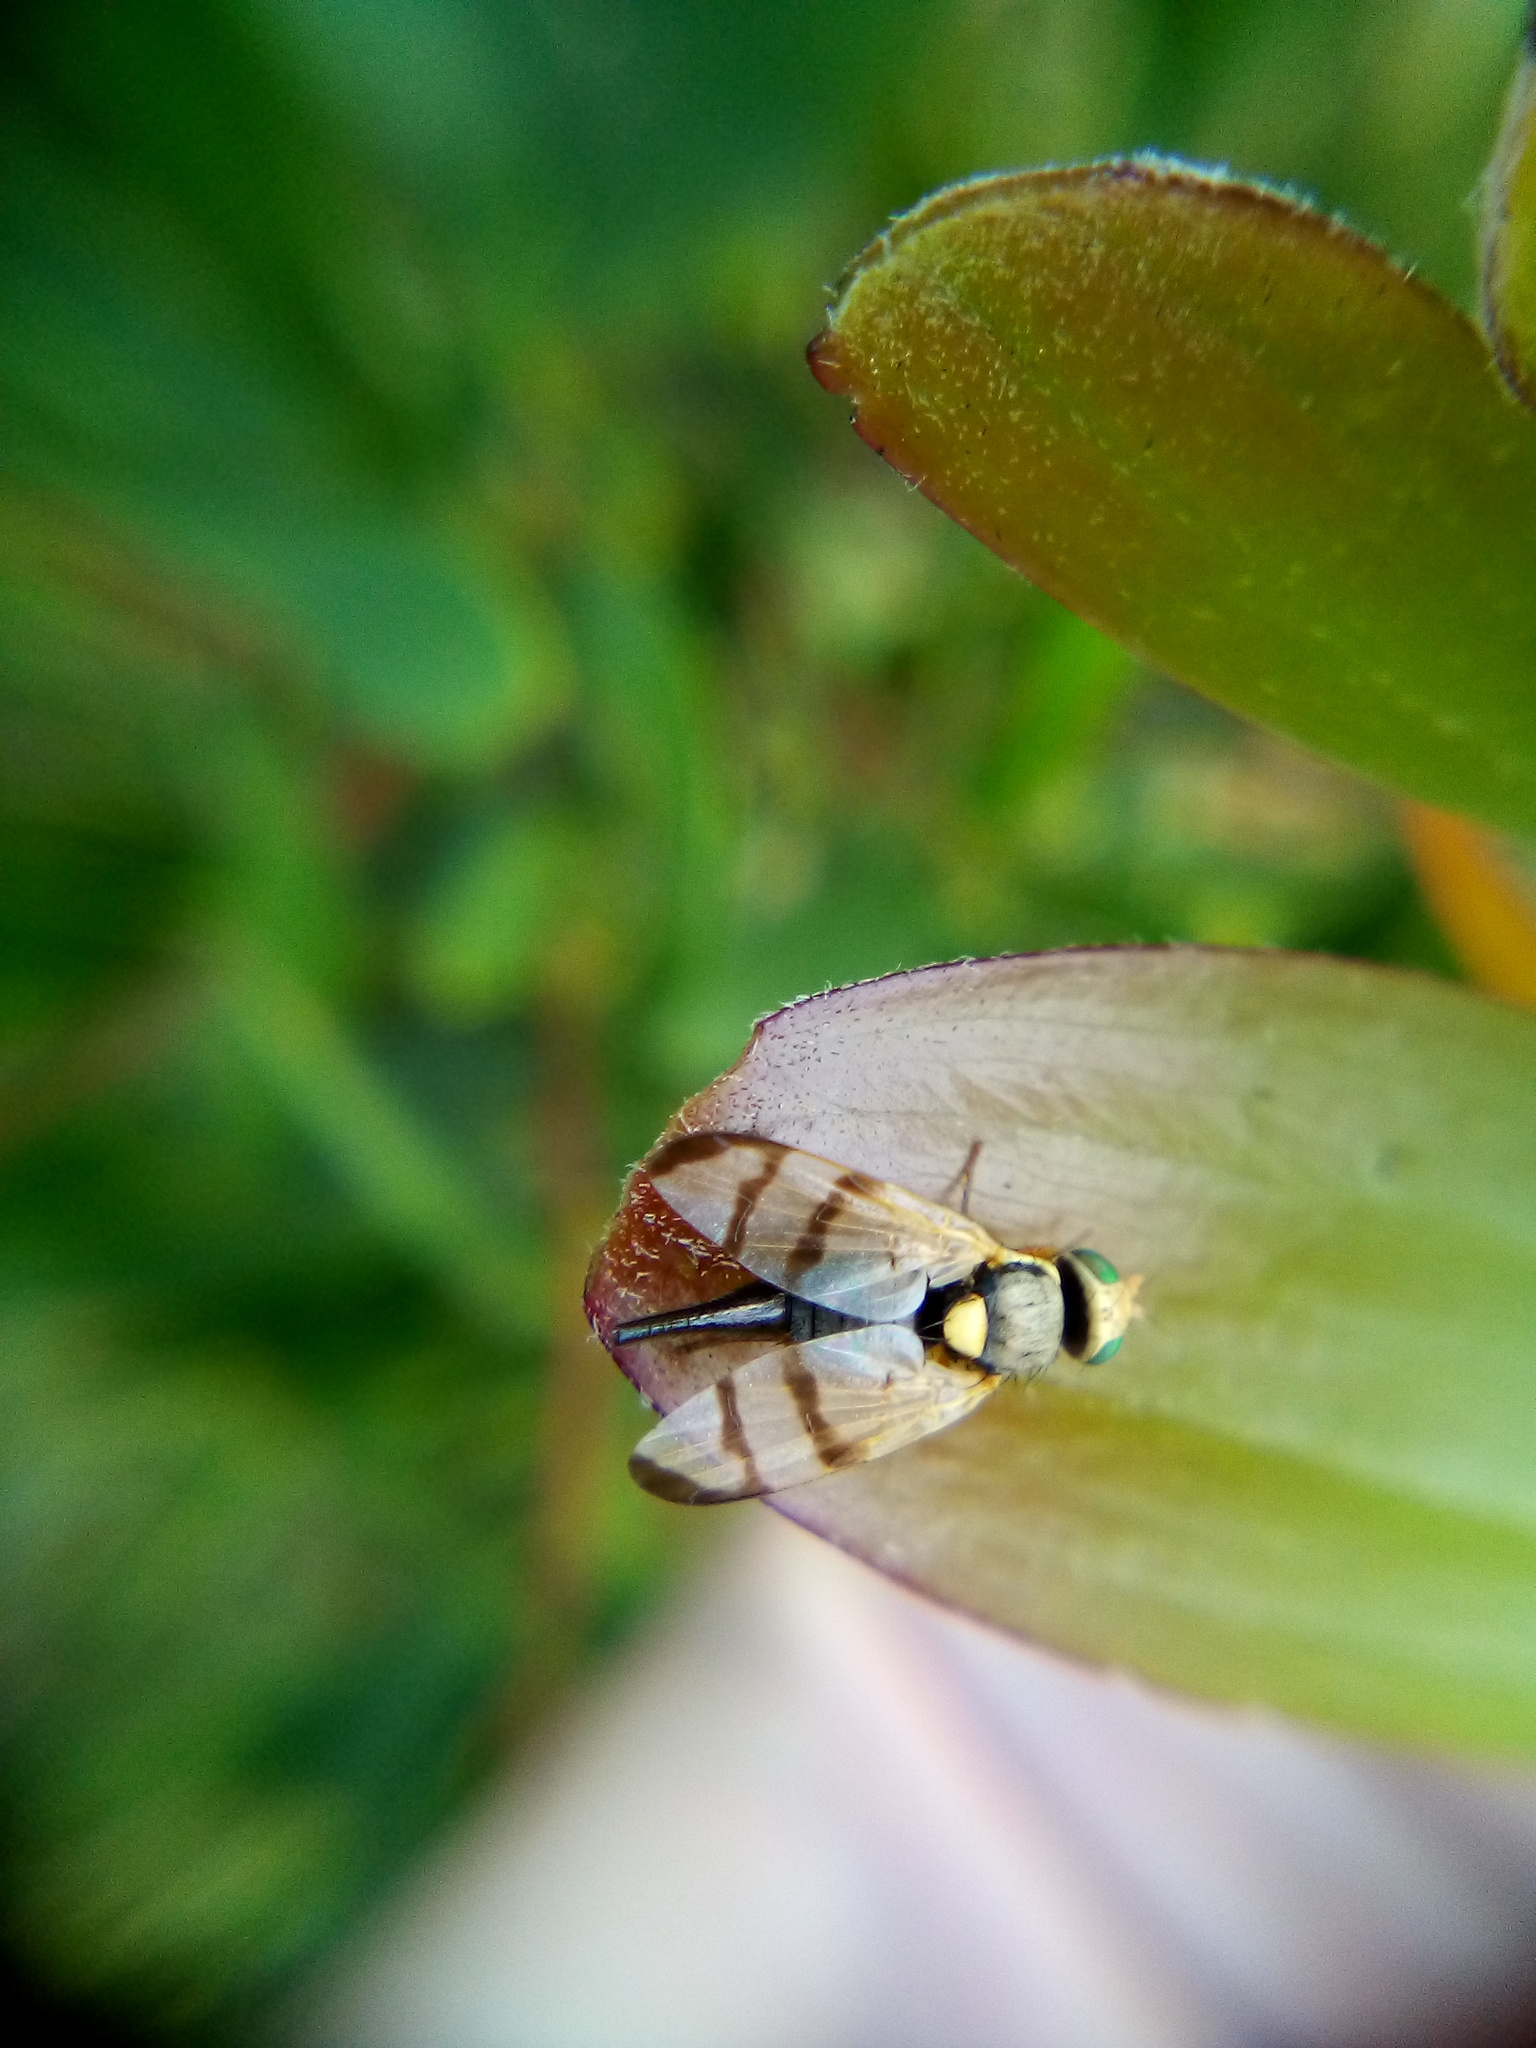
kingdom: Animalia
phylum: Arthropoda
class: Insecta
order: Diptera
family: Tephritidae
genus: Urophora
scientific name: Urophora stylata
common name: Fruit fly
